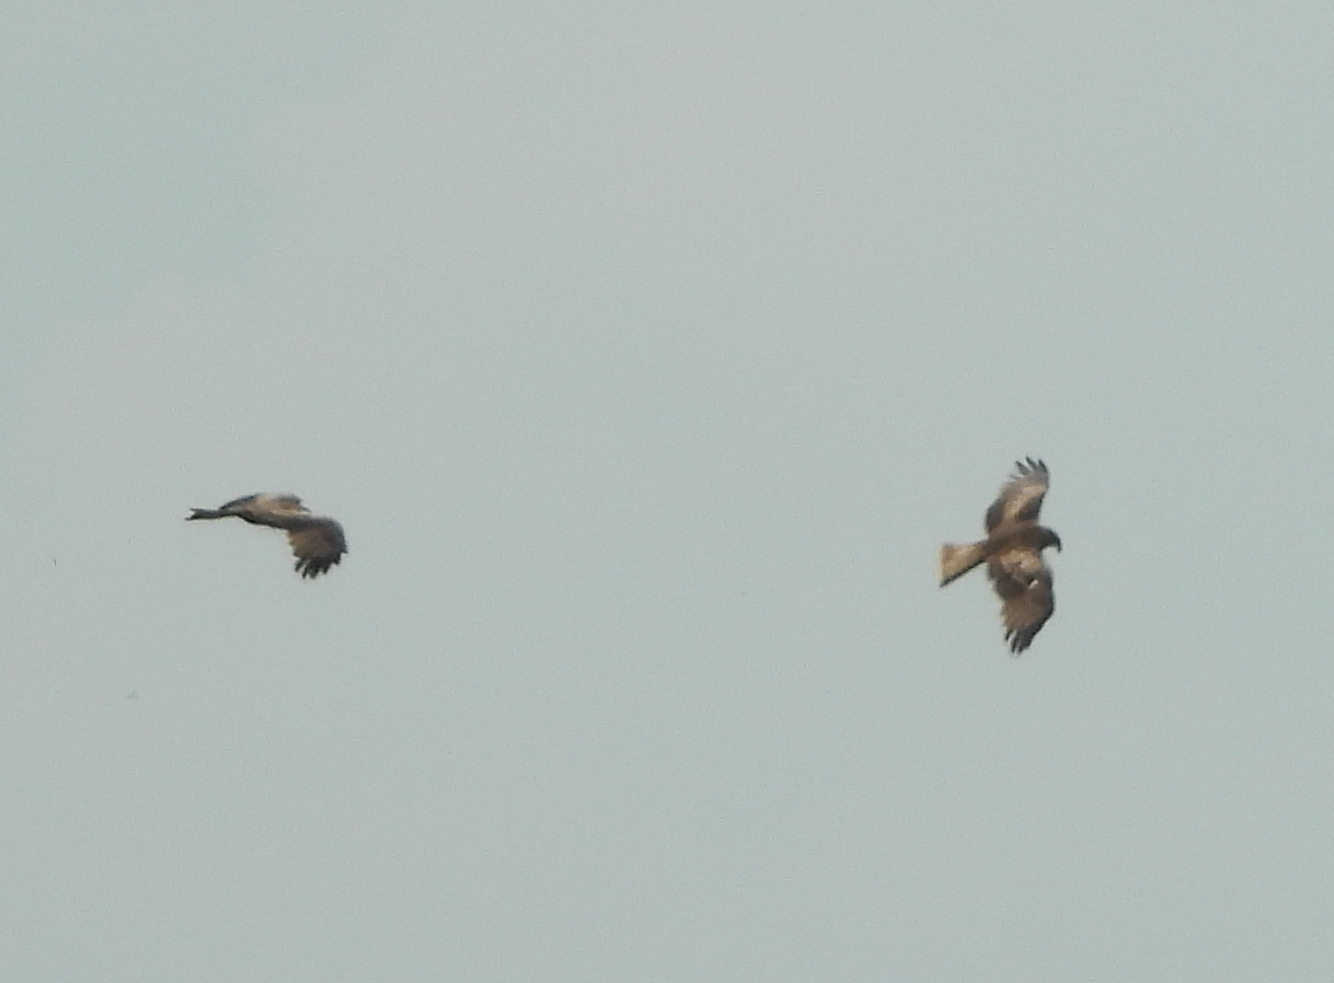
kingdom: Animalia
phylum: Chordata
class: Aves
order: Accipitriformes
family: Accipitridae
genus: Buteo
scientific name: Buteo buteo
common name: Common buzzard
